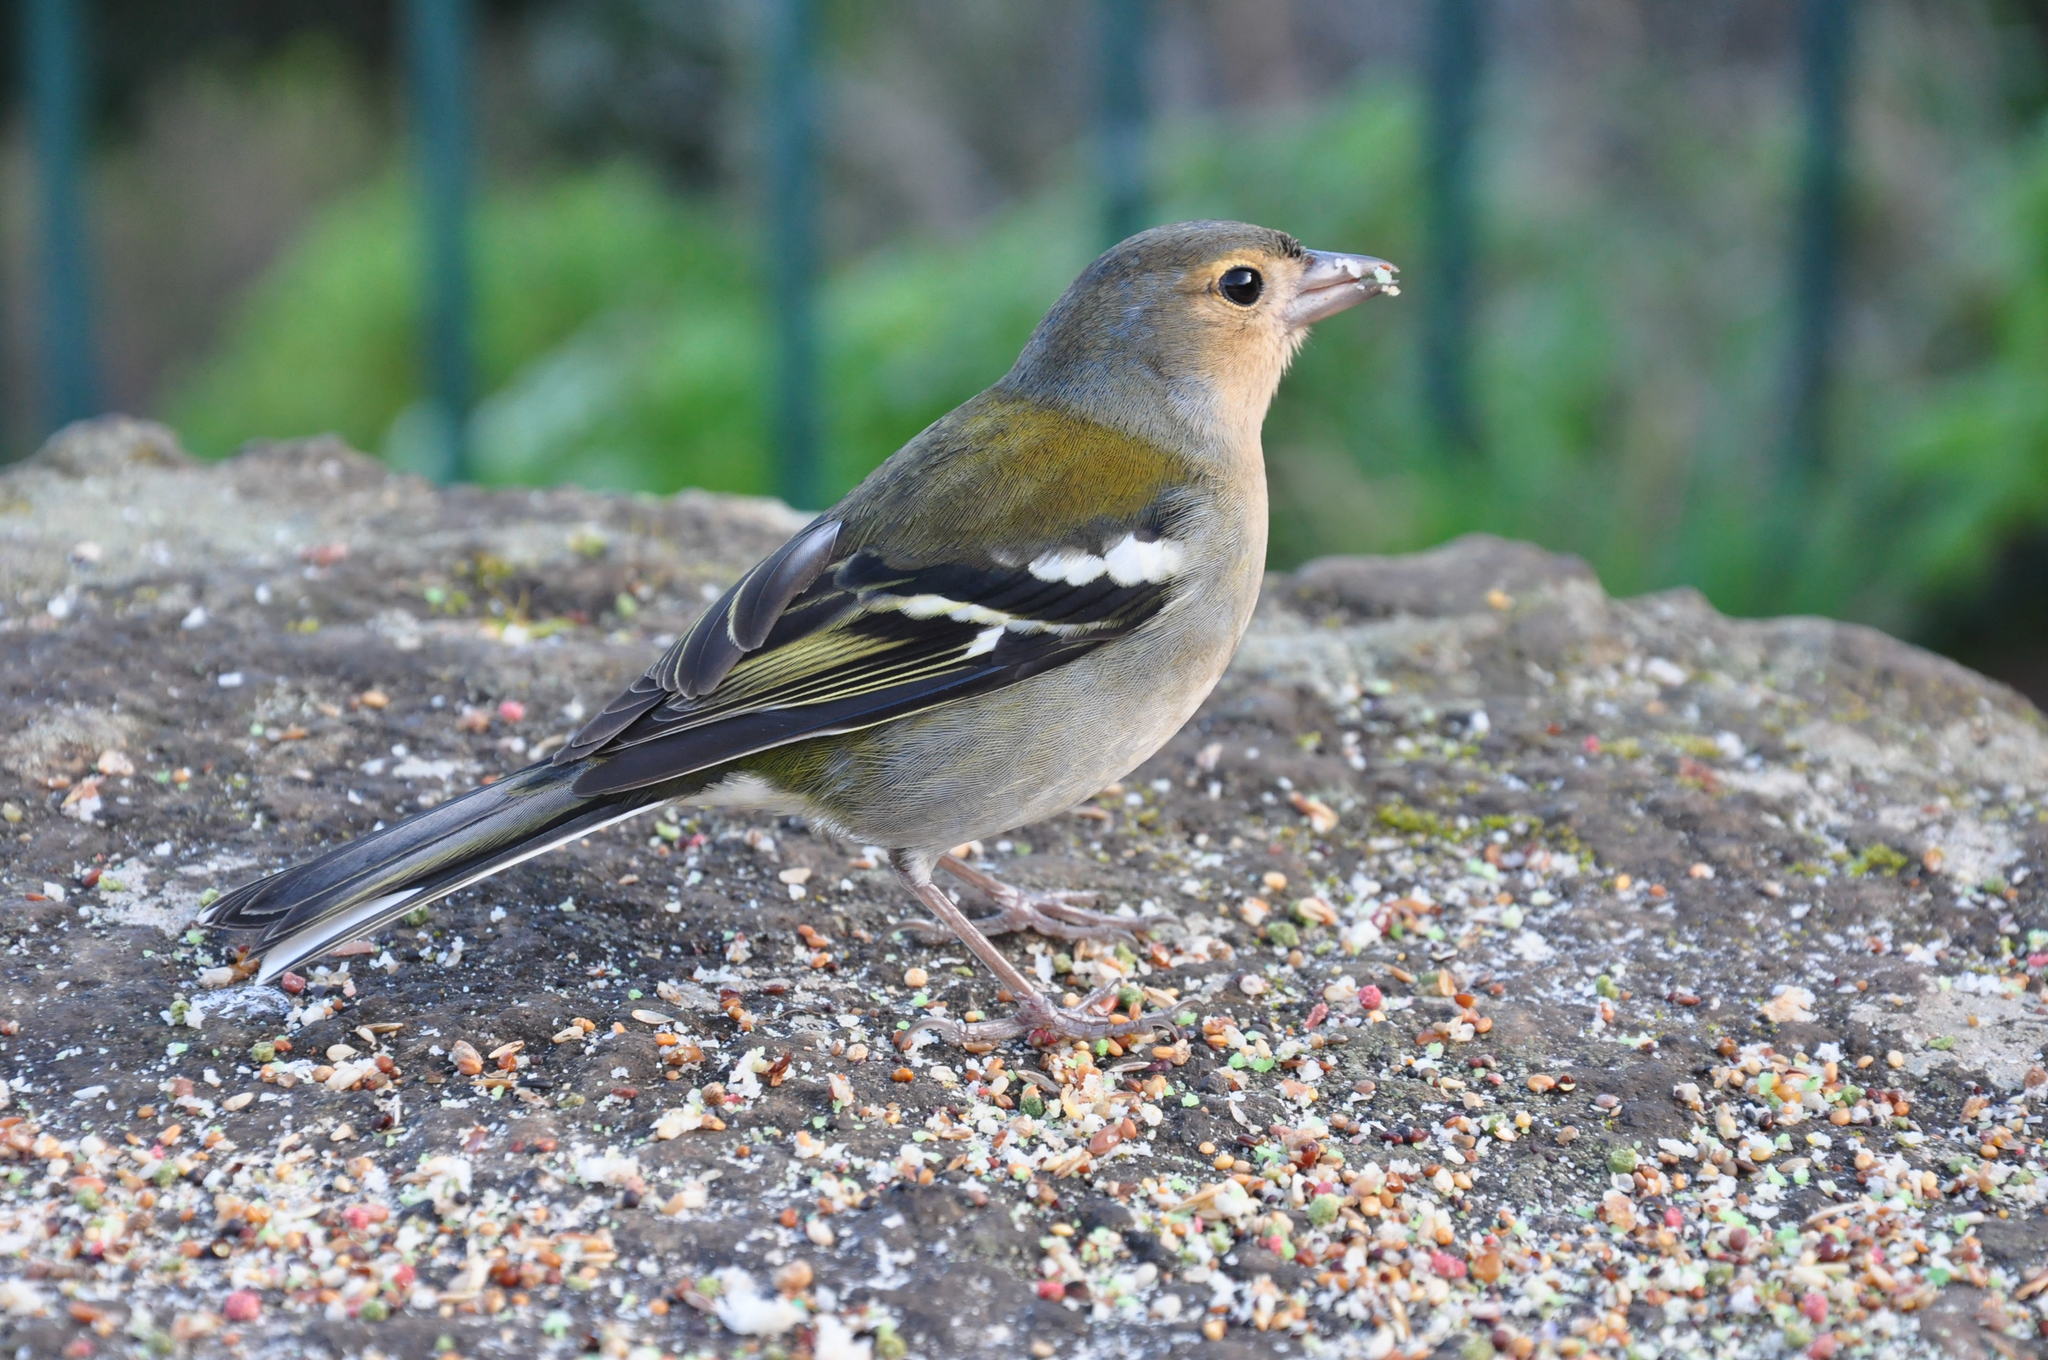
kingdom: Animalia
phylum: Chordata
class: Aves
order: Passeriformes
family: Fringillidae
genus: Fringilla
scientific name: Fringilla maderensis
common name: Madeira chaffinch
